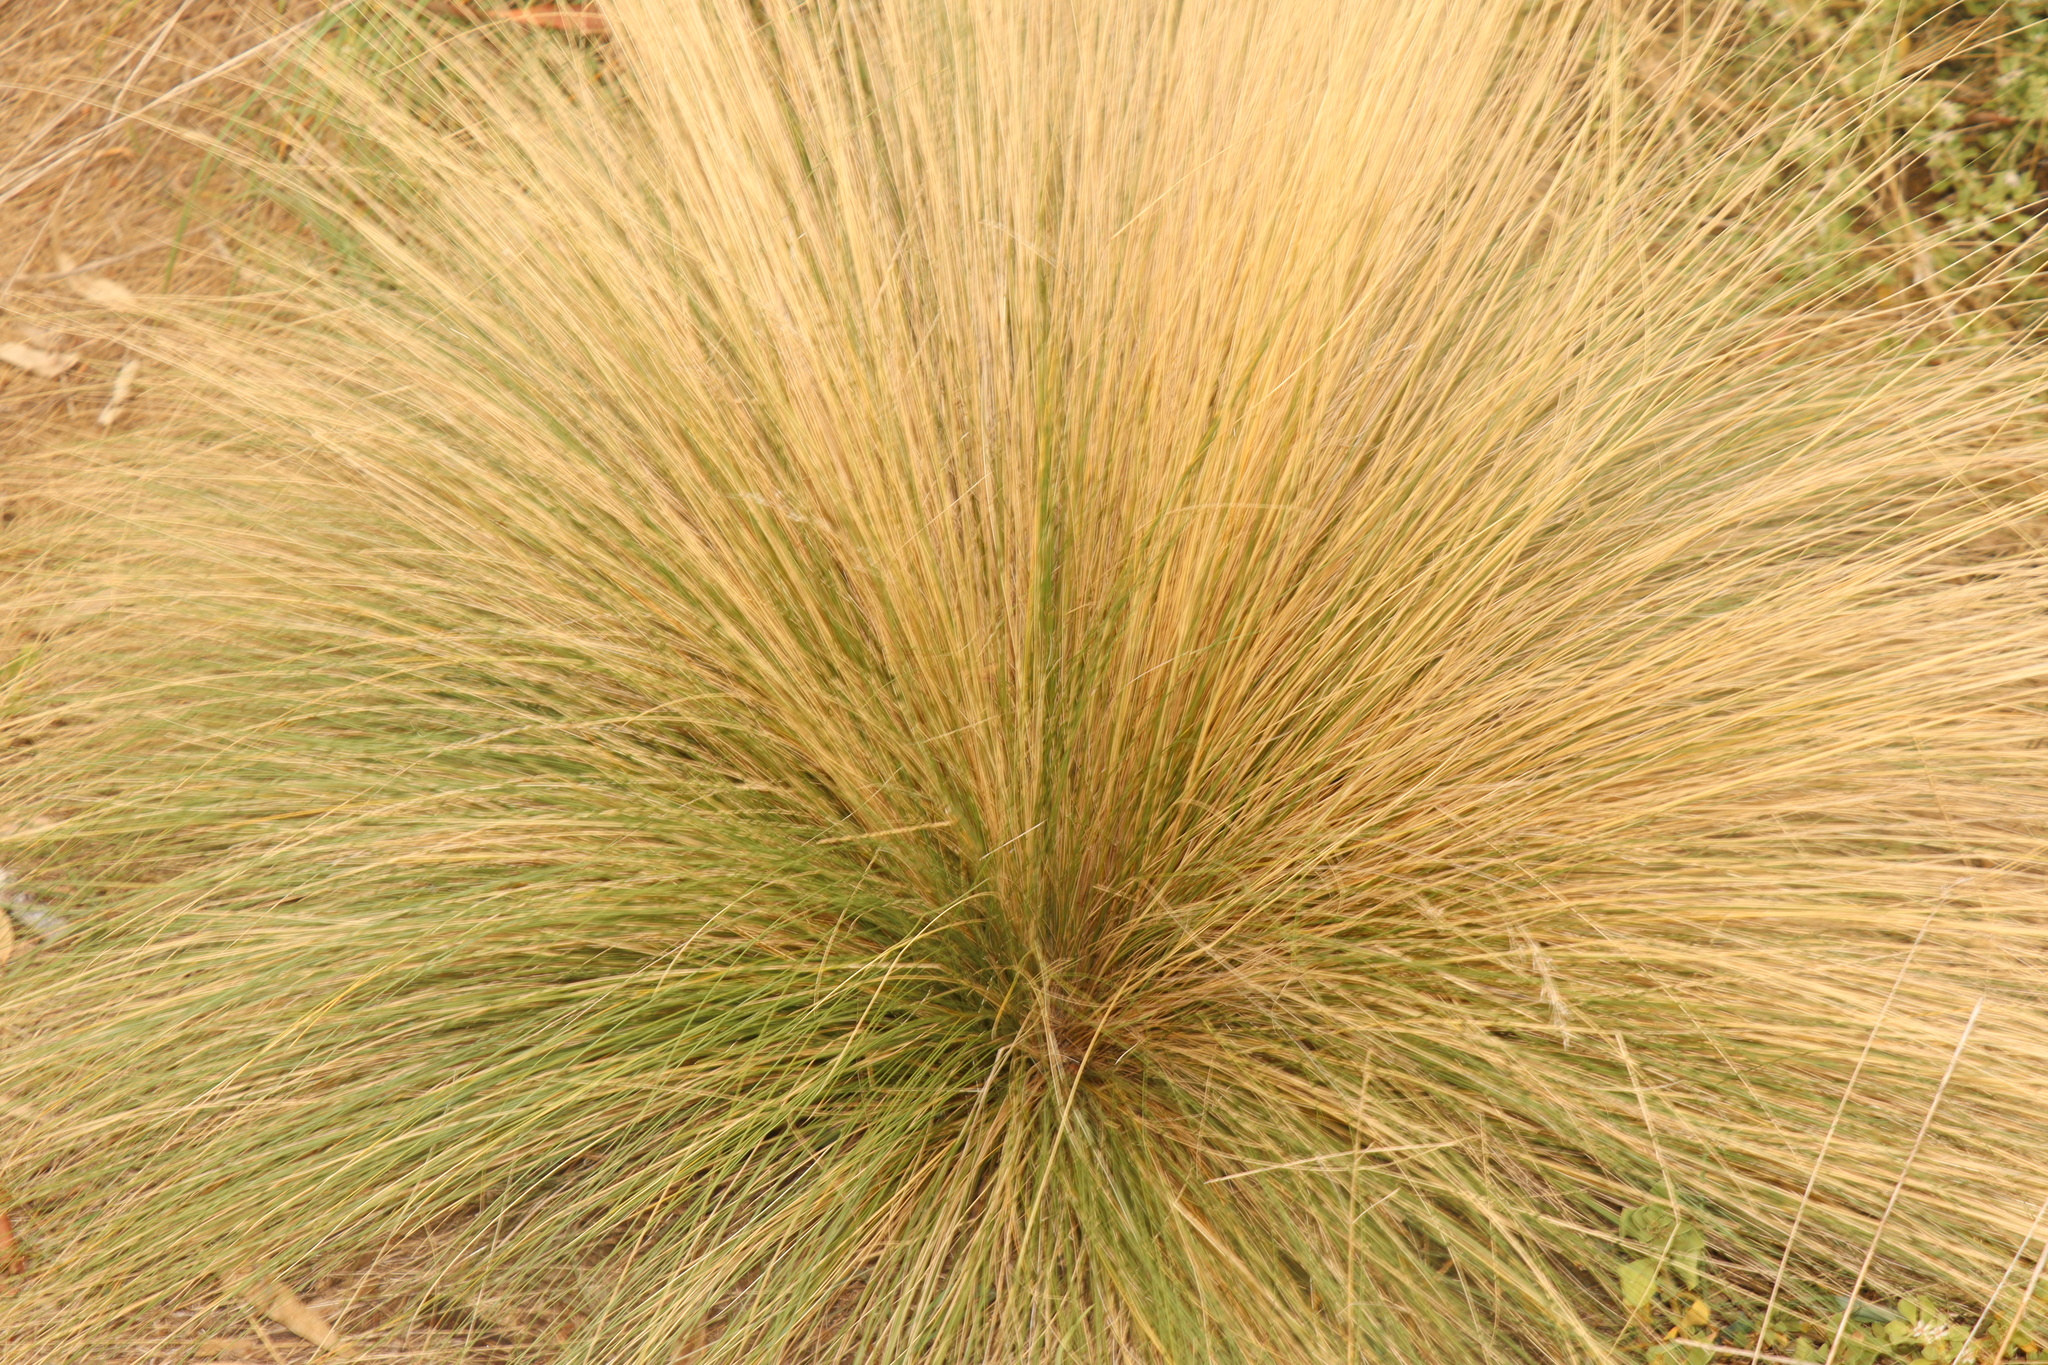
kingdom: Plantae
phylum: Tracheophyta
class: Liliopsida
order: Poales
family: Poaceae
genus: Nassella
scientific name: Nassella trichotoma
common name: Serrated tussock grass
